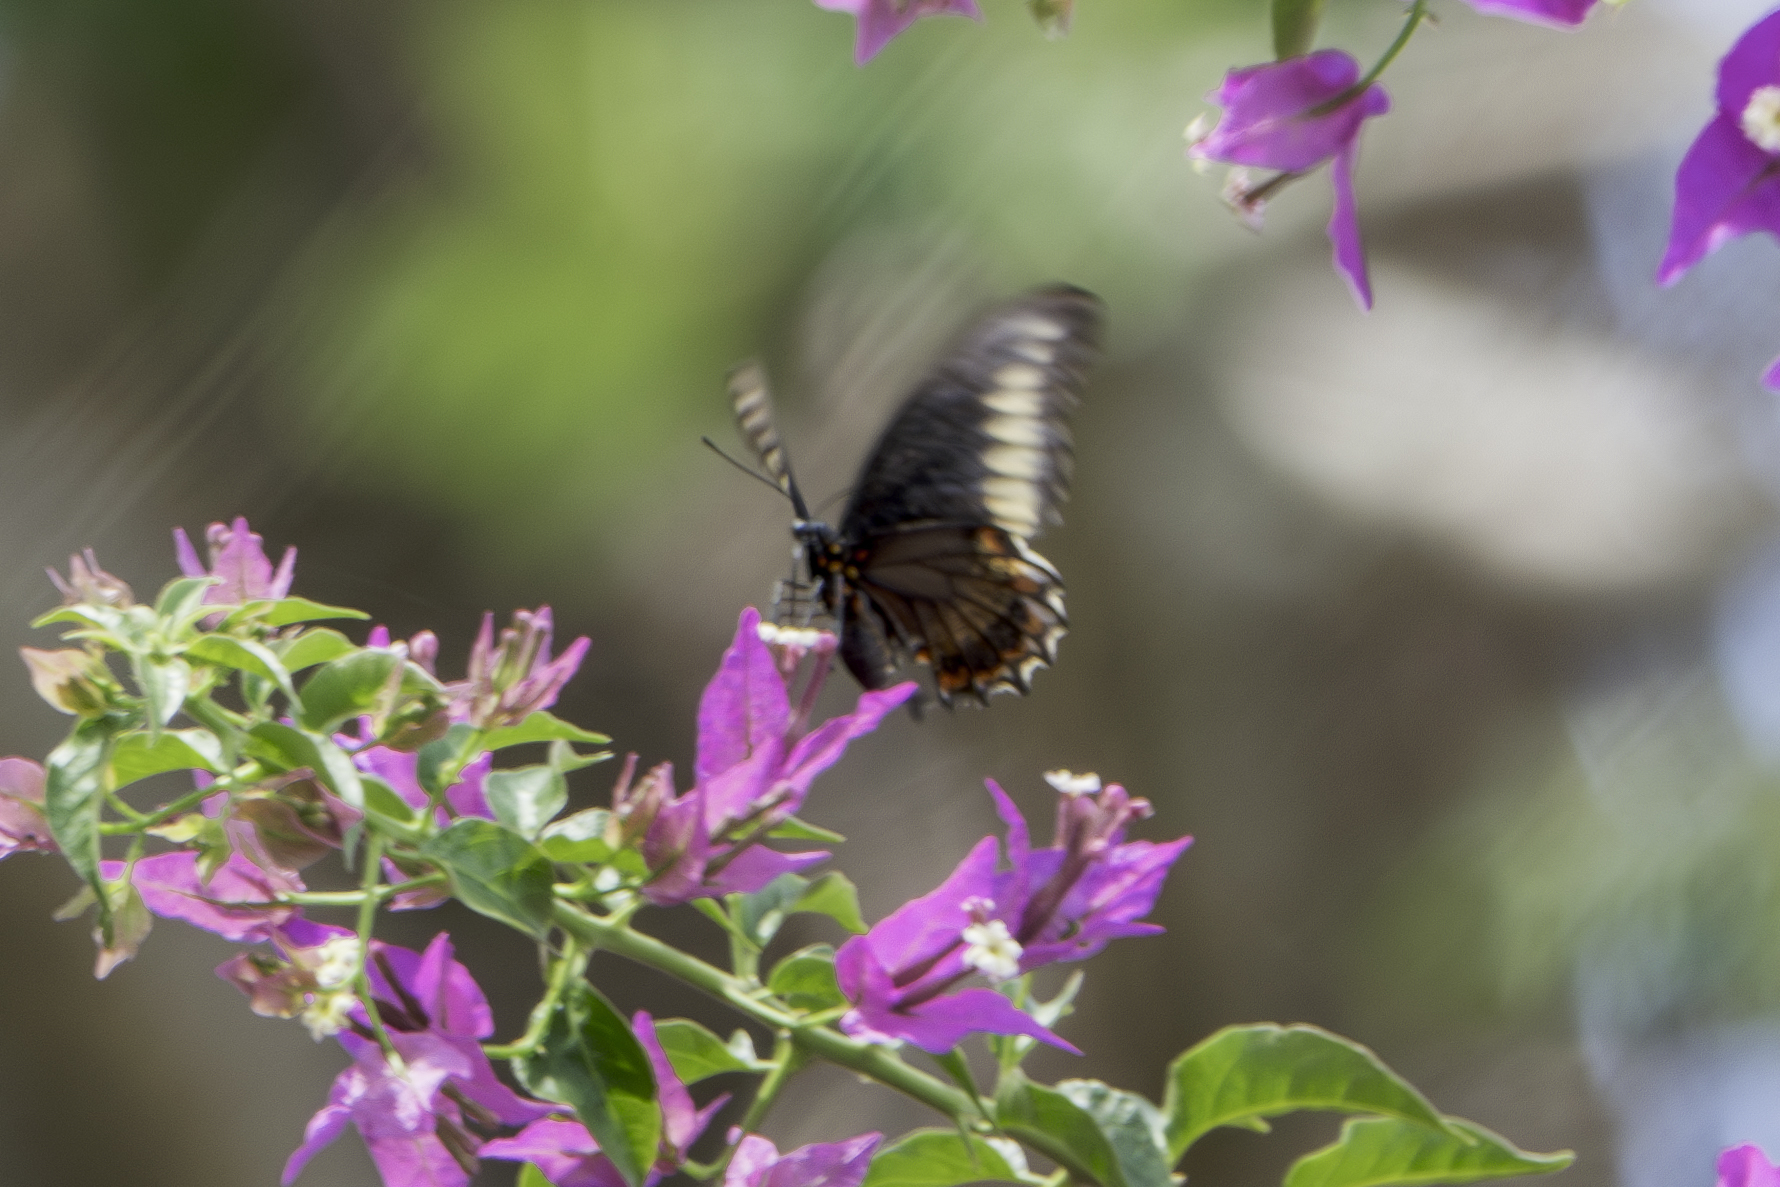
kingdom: Animalia
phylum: Arthropoda
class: Insecta
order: Lepidoptera
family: Papilionidae
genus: Battus
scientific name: Battus polydamas
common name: Polydamas swallowtail
